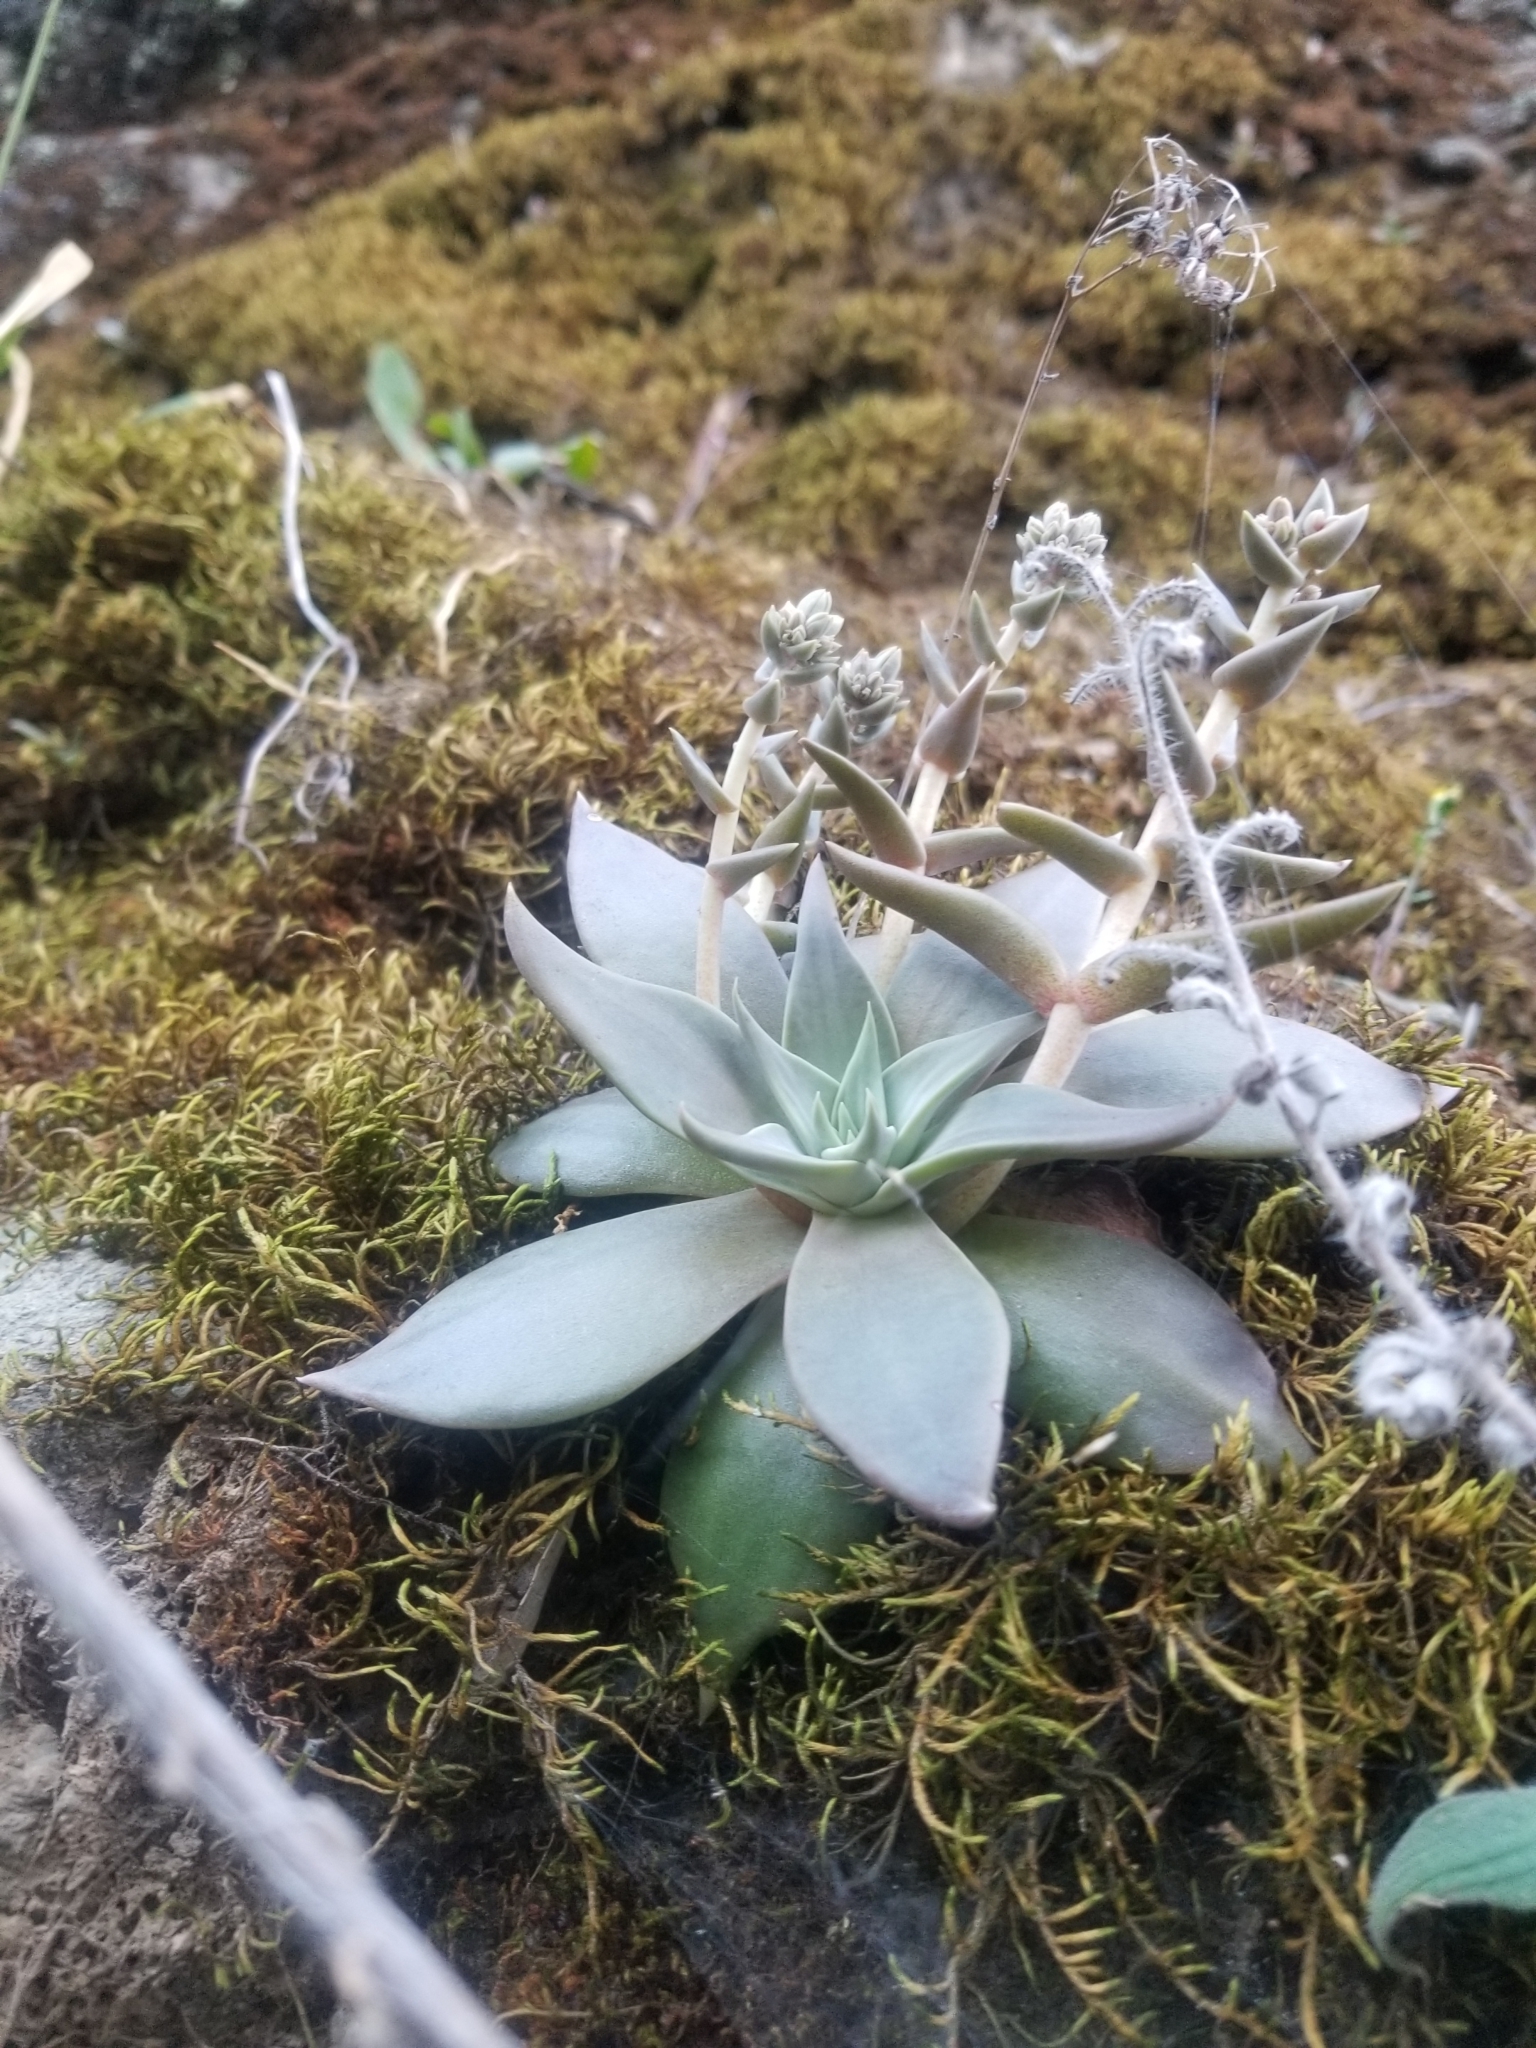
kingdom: Plantae
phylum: Tracheophyta
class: Magnoliopsida
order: Saxifragales
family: Crassulaceae
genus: Dudleya
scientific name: Dudleya cymosa
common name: Canyon dudleya
